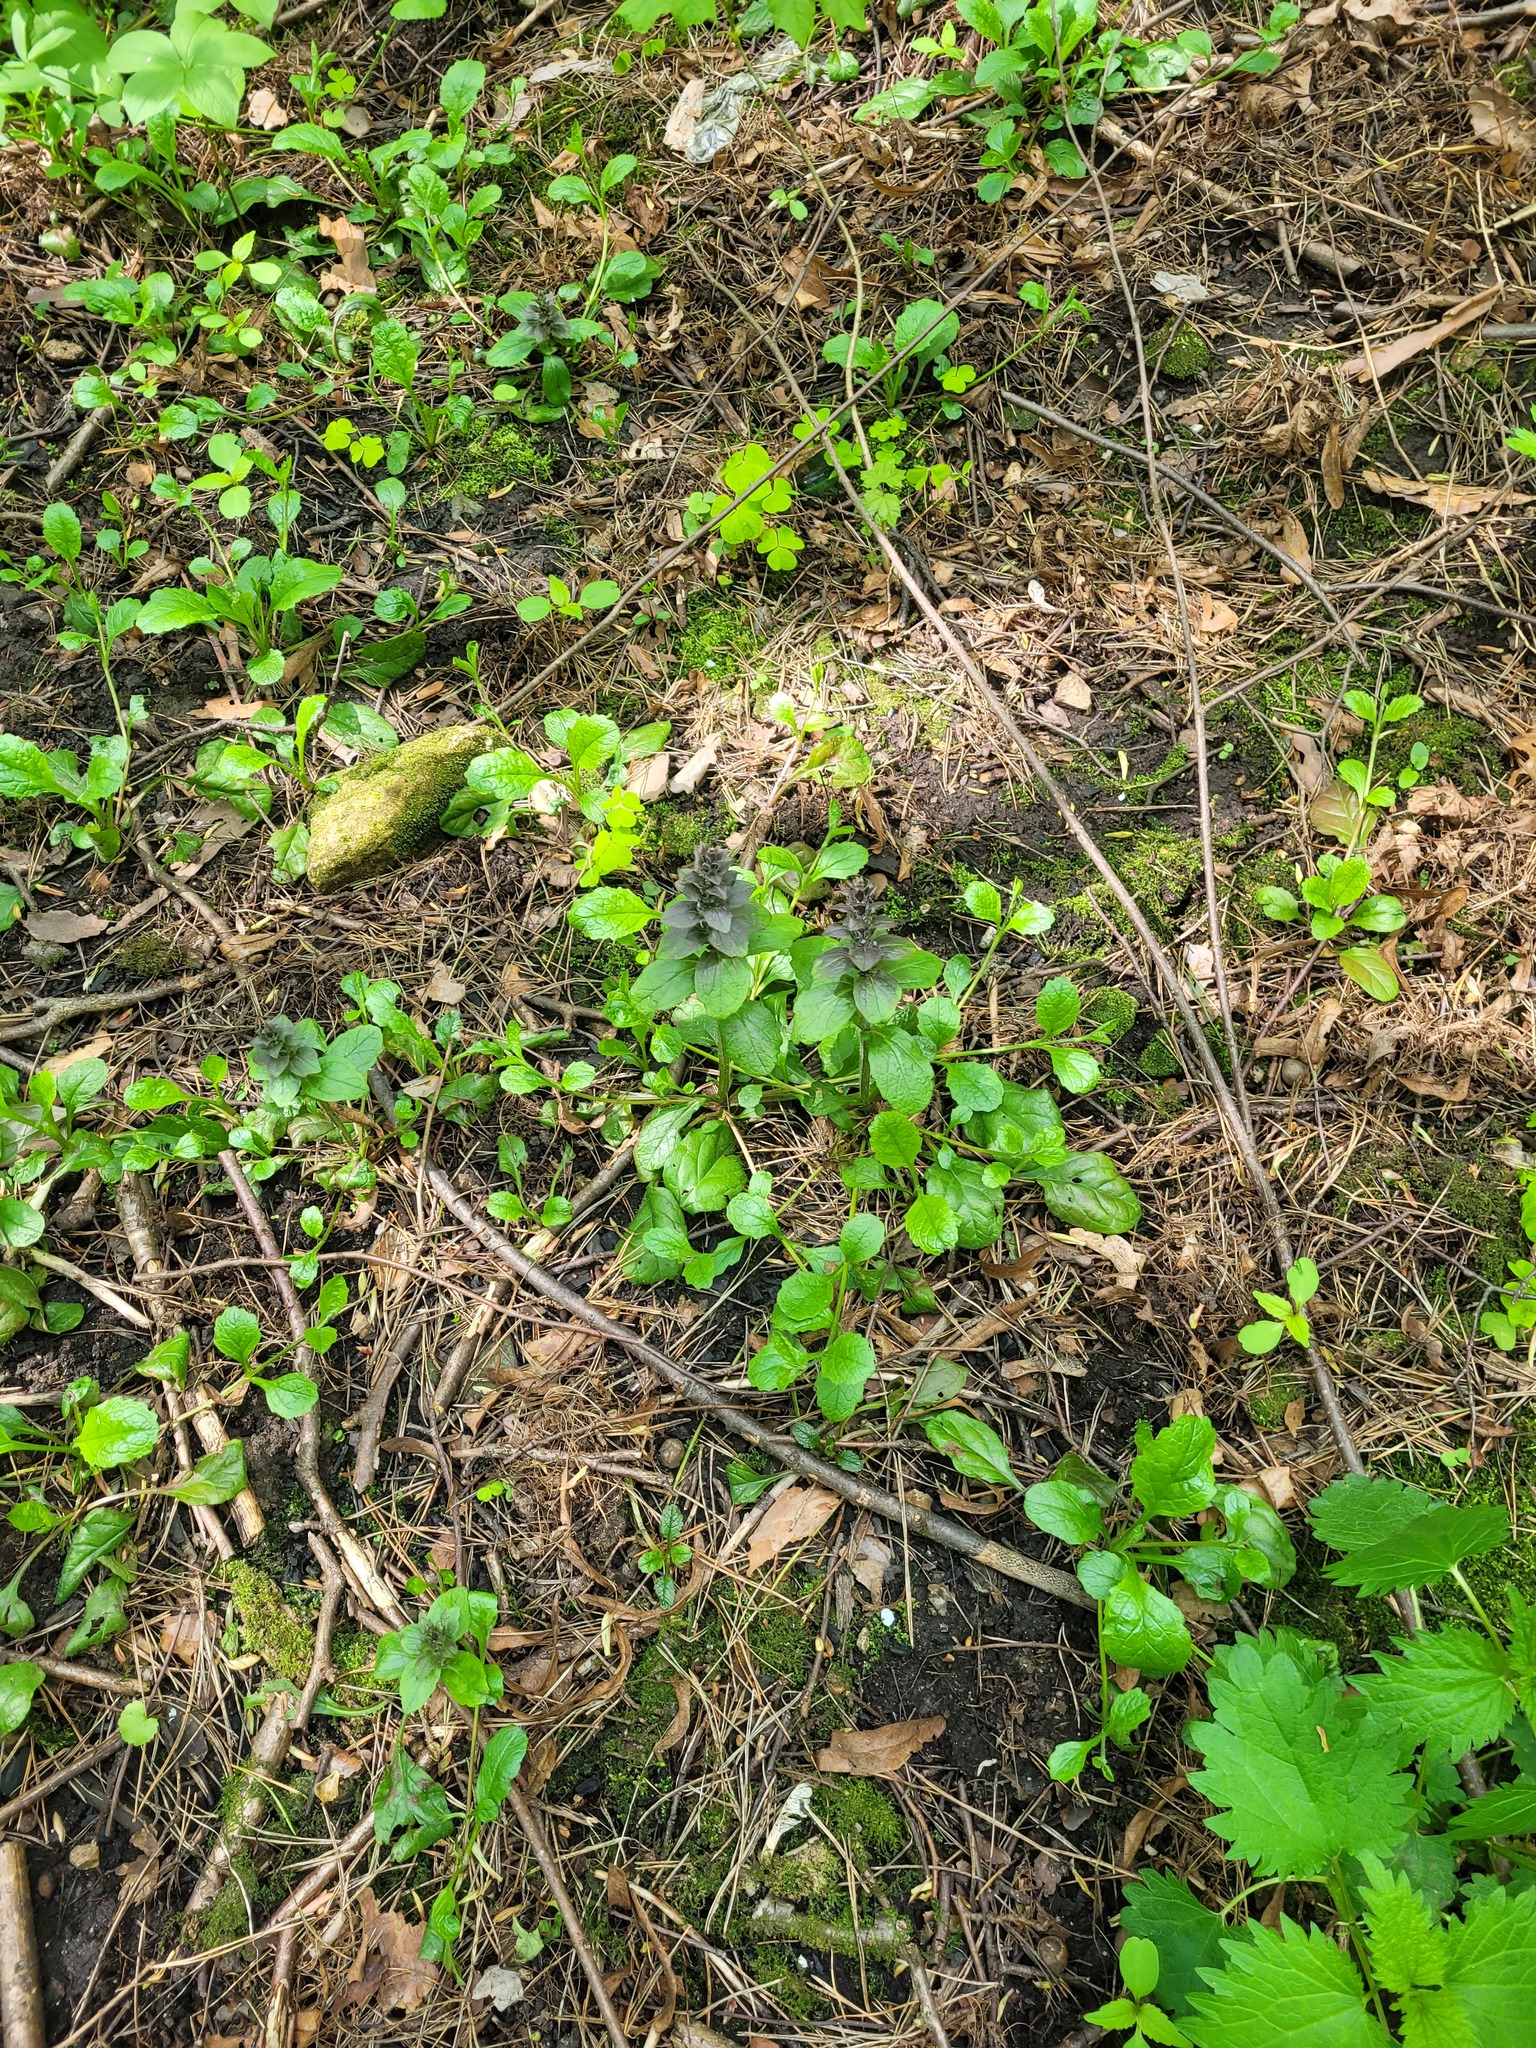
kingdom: Plantae
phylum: Tracheophyta
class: Magnoliopsida
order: Lamiales
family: Lamiaceae
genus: Ajuga
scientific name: Ajuga reptans
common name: Bugle
